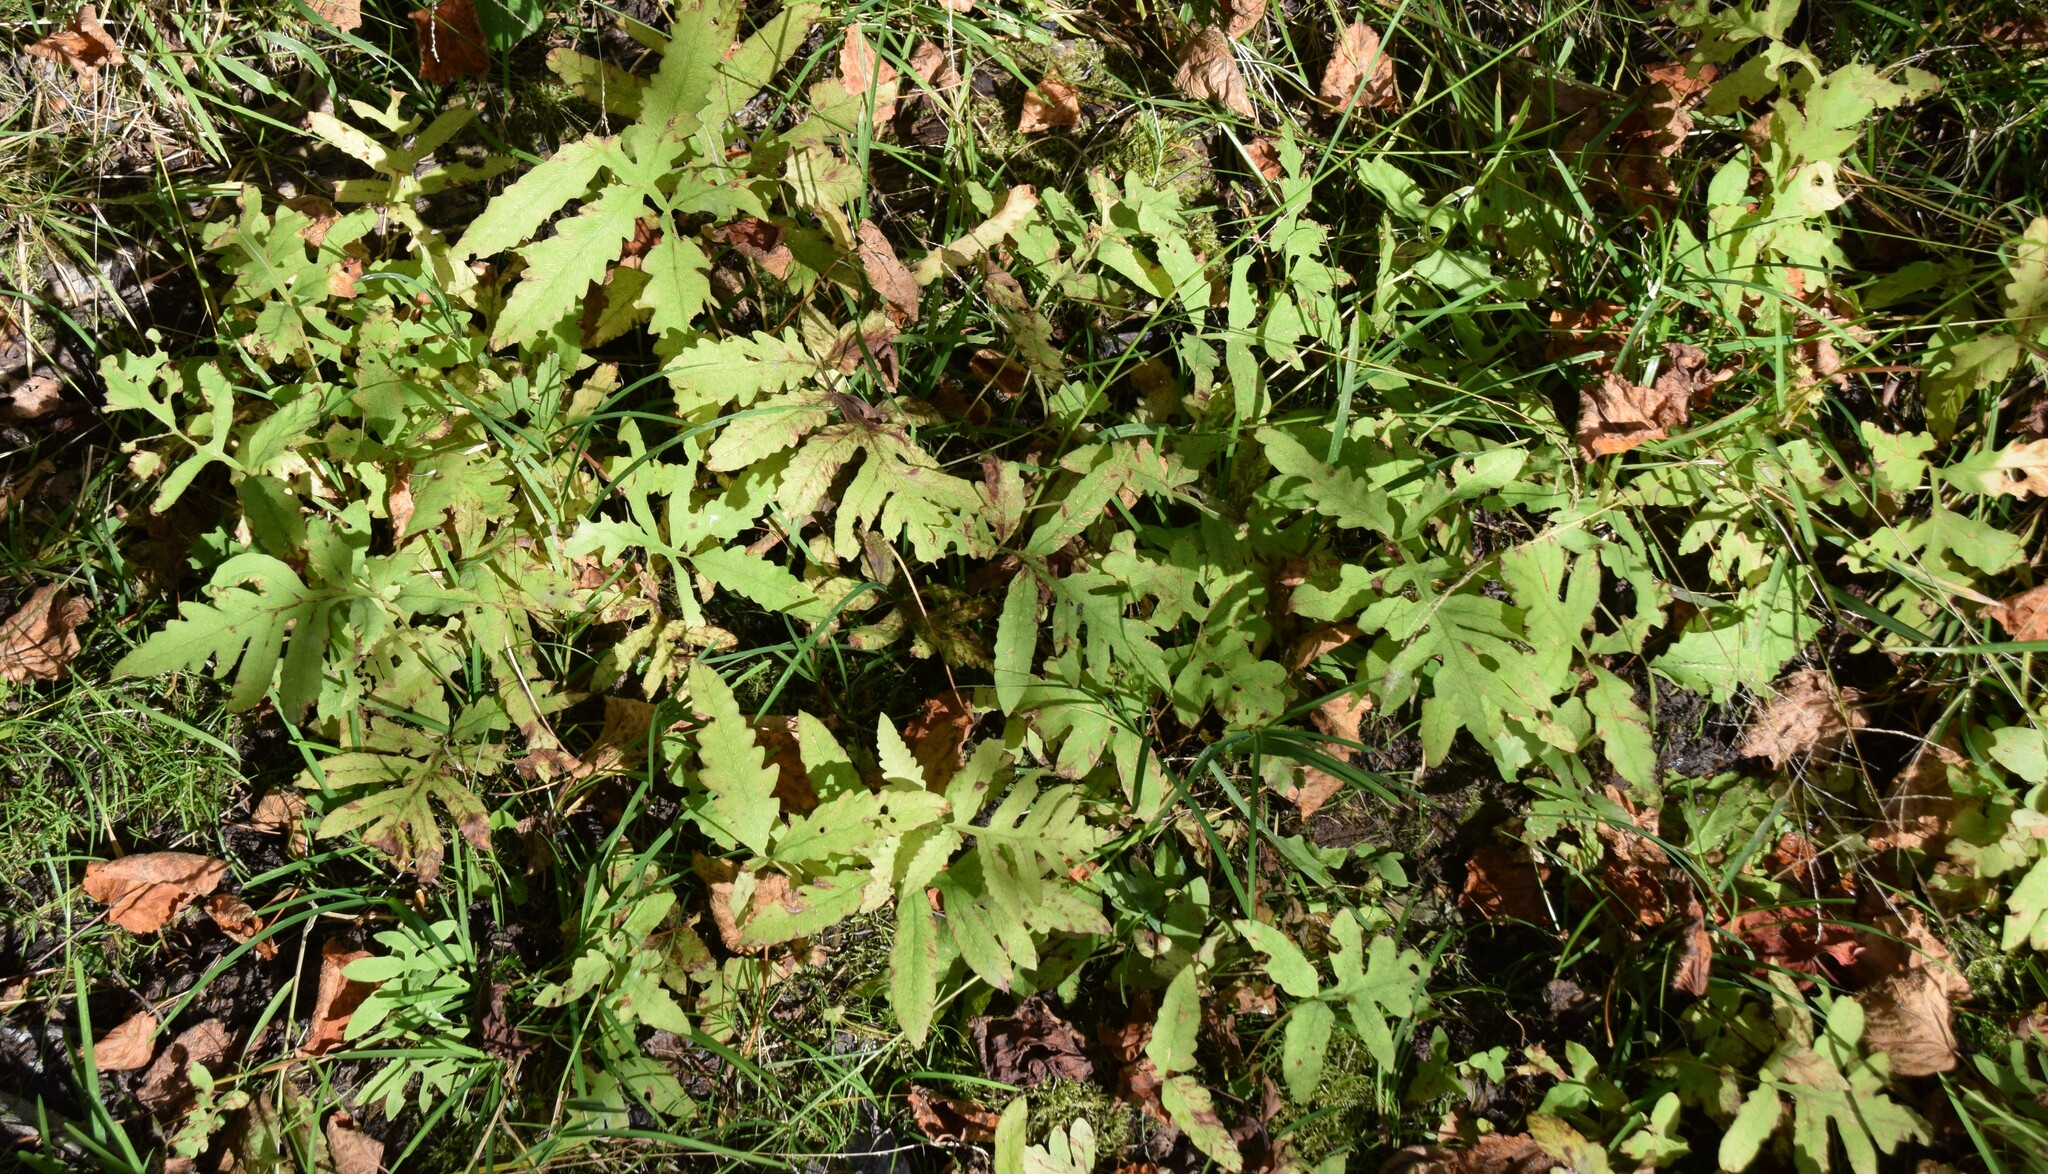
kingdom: Plantae
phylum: Tracheophyta
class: Polypodiopsida
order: Polypodiales
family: Onocleaceae
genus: Onoclea
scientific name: Onoclea sensibilis
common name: Sensitive fern
